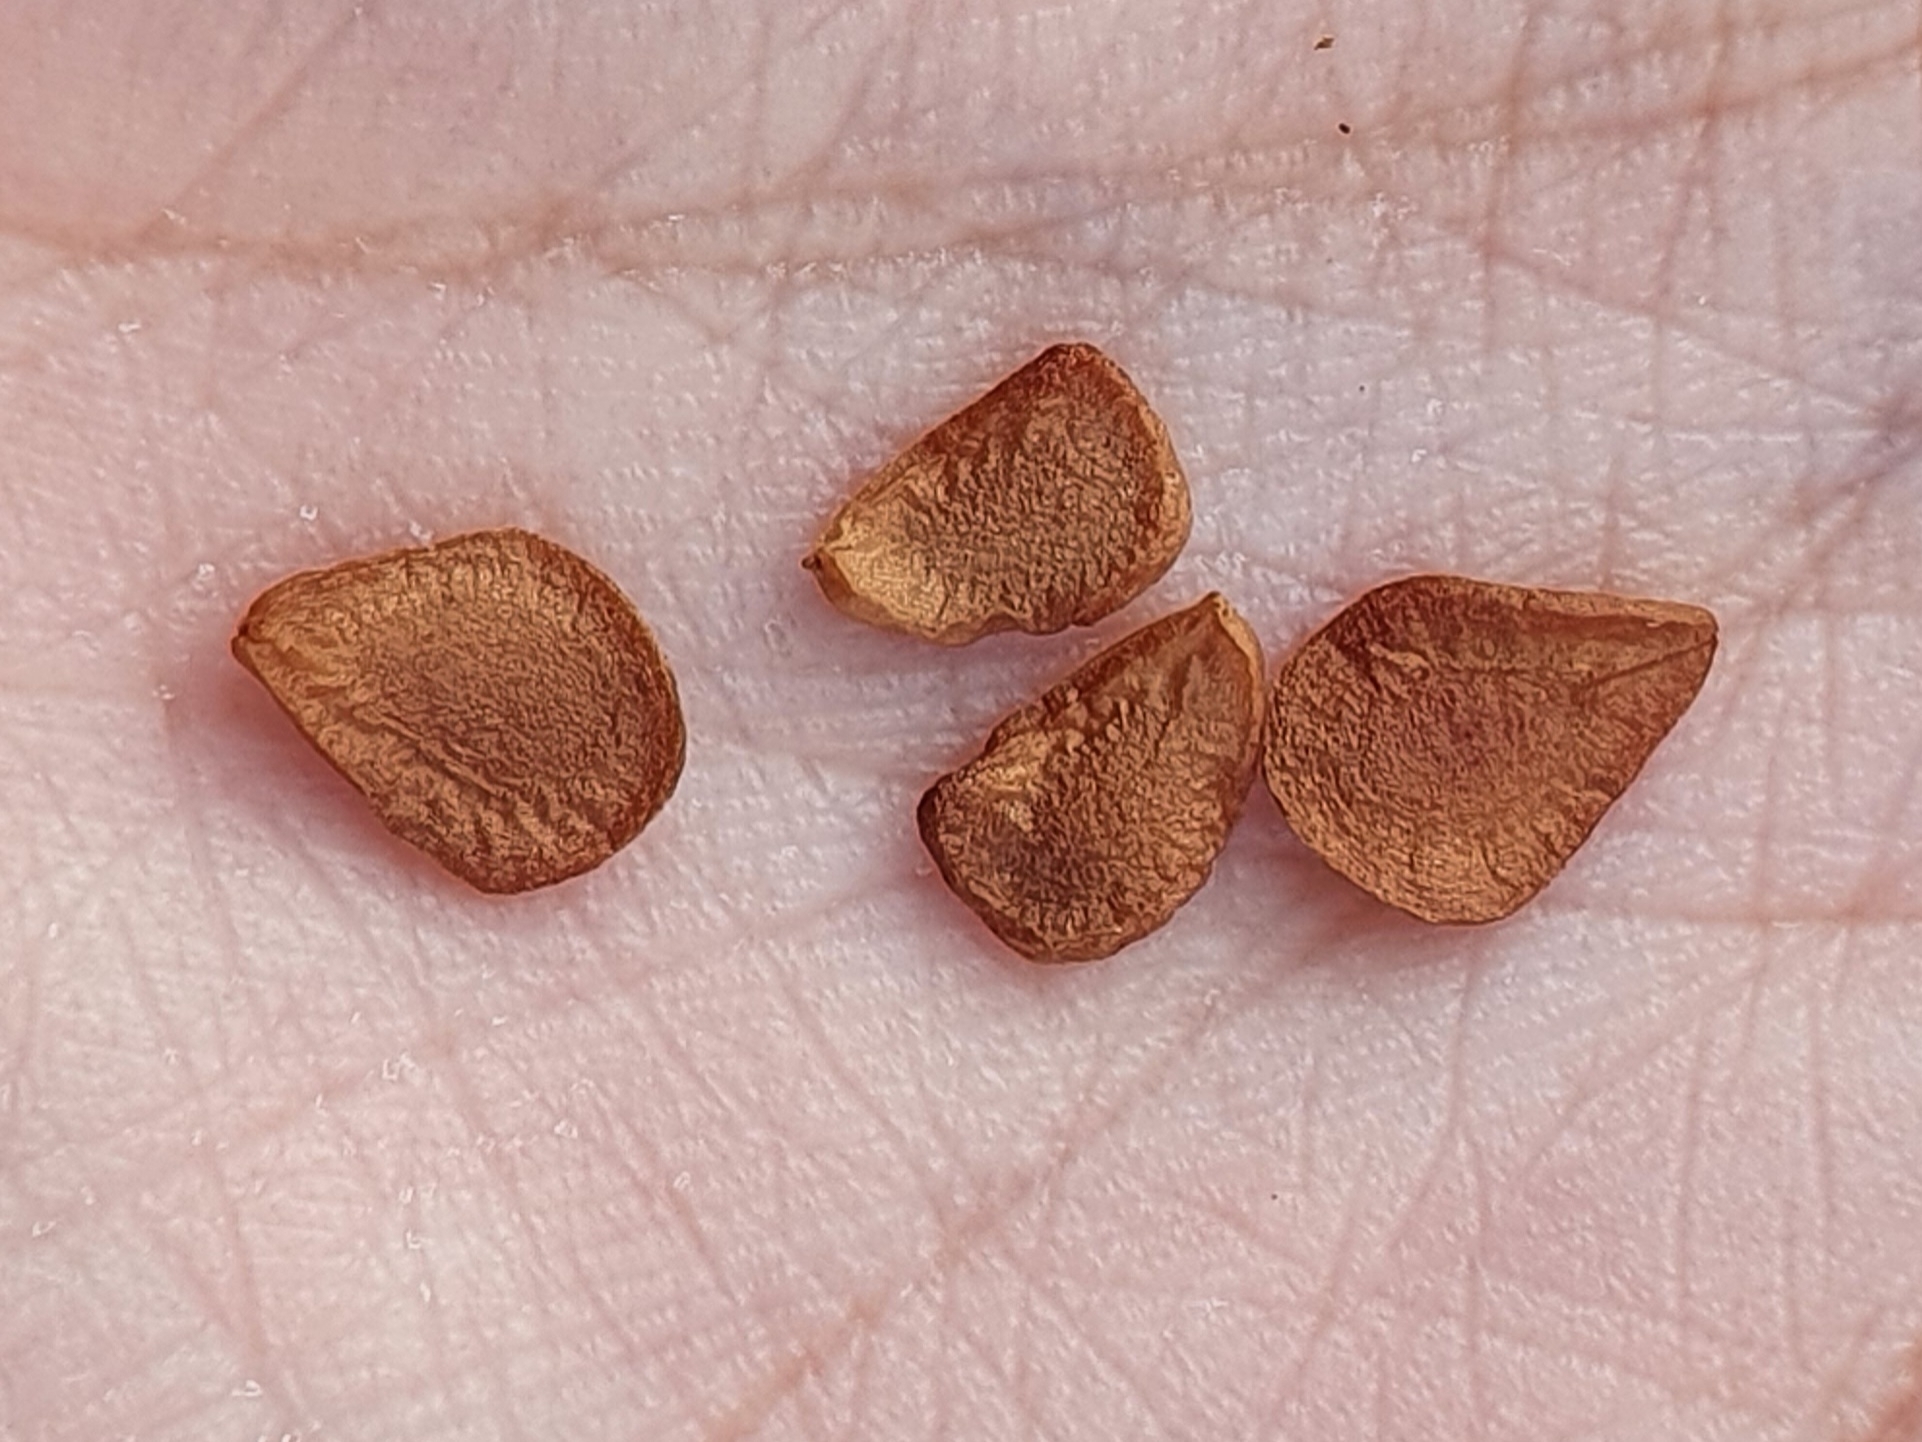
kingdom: Plantae
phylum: Tracheophyta
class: Liliopsida
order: Liliales
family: Liliaceae
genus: Fritillaria
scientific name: Fritillaria oranensis
